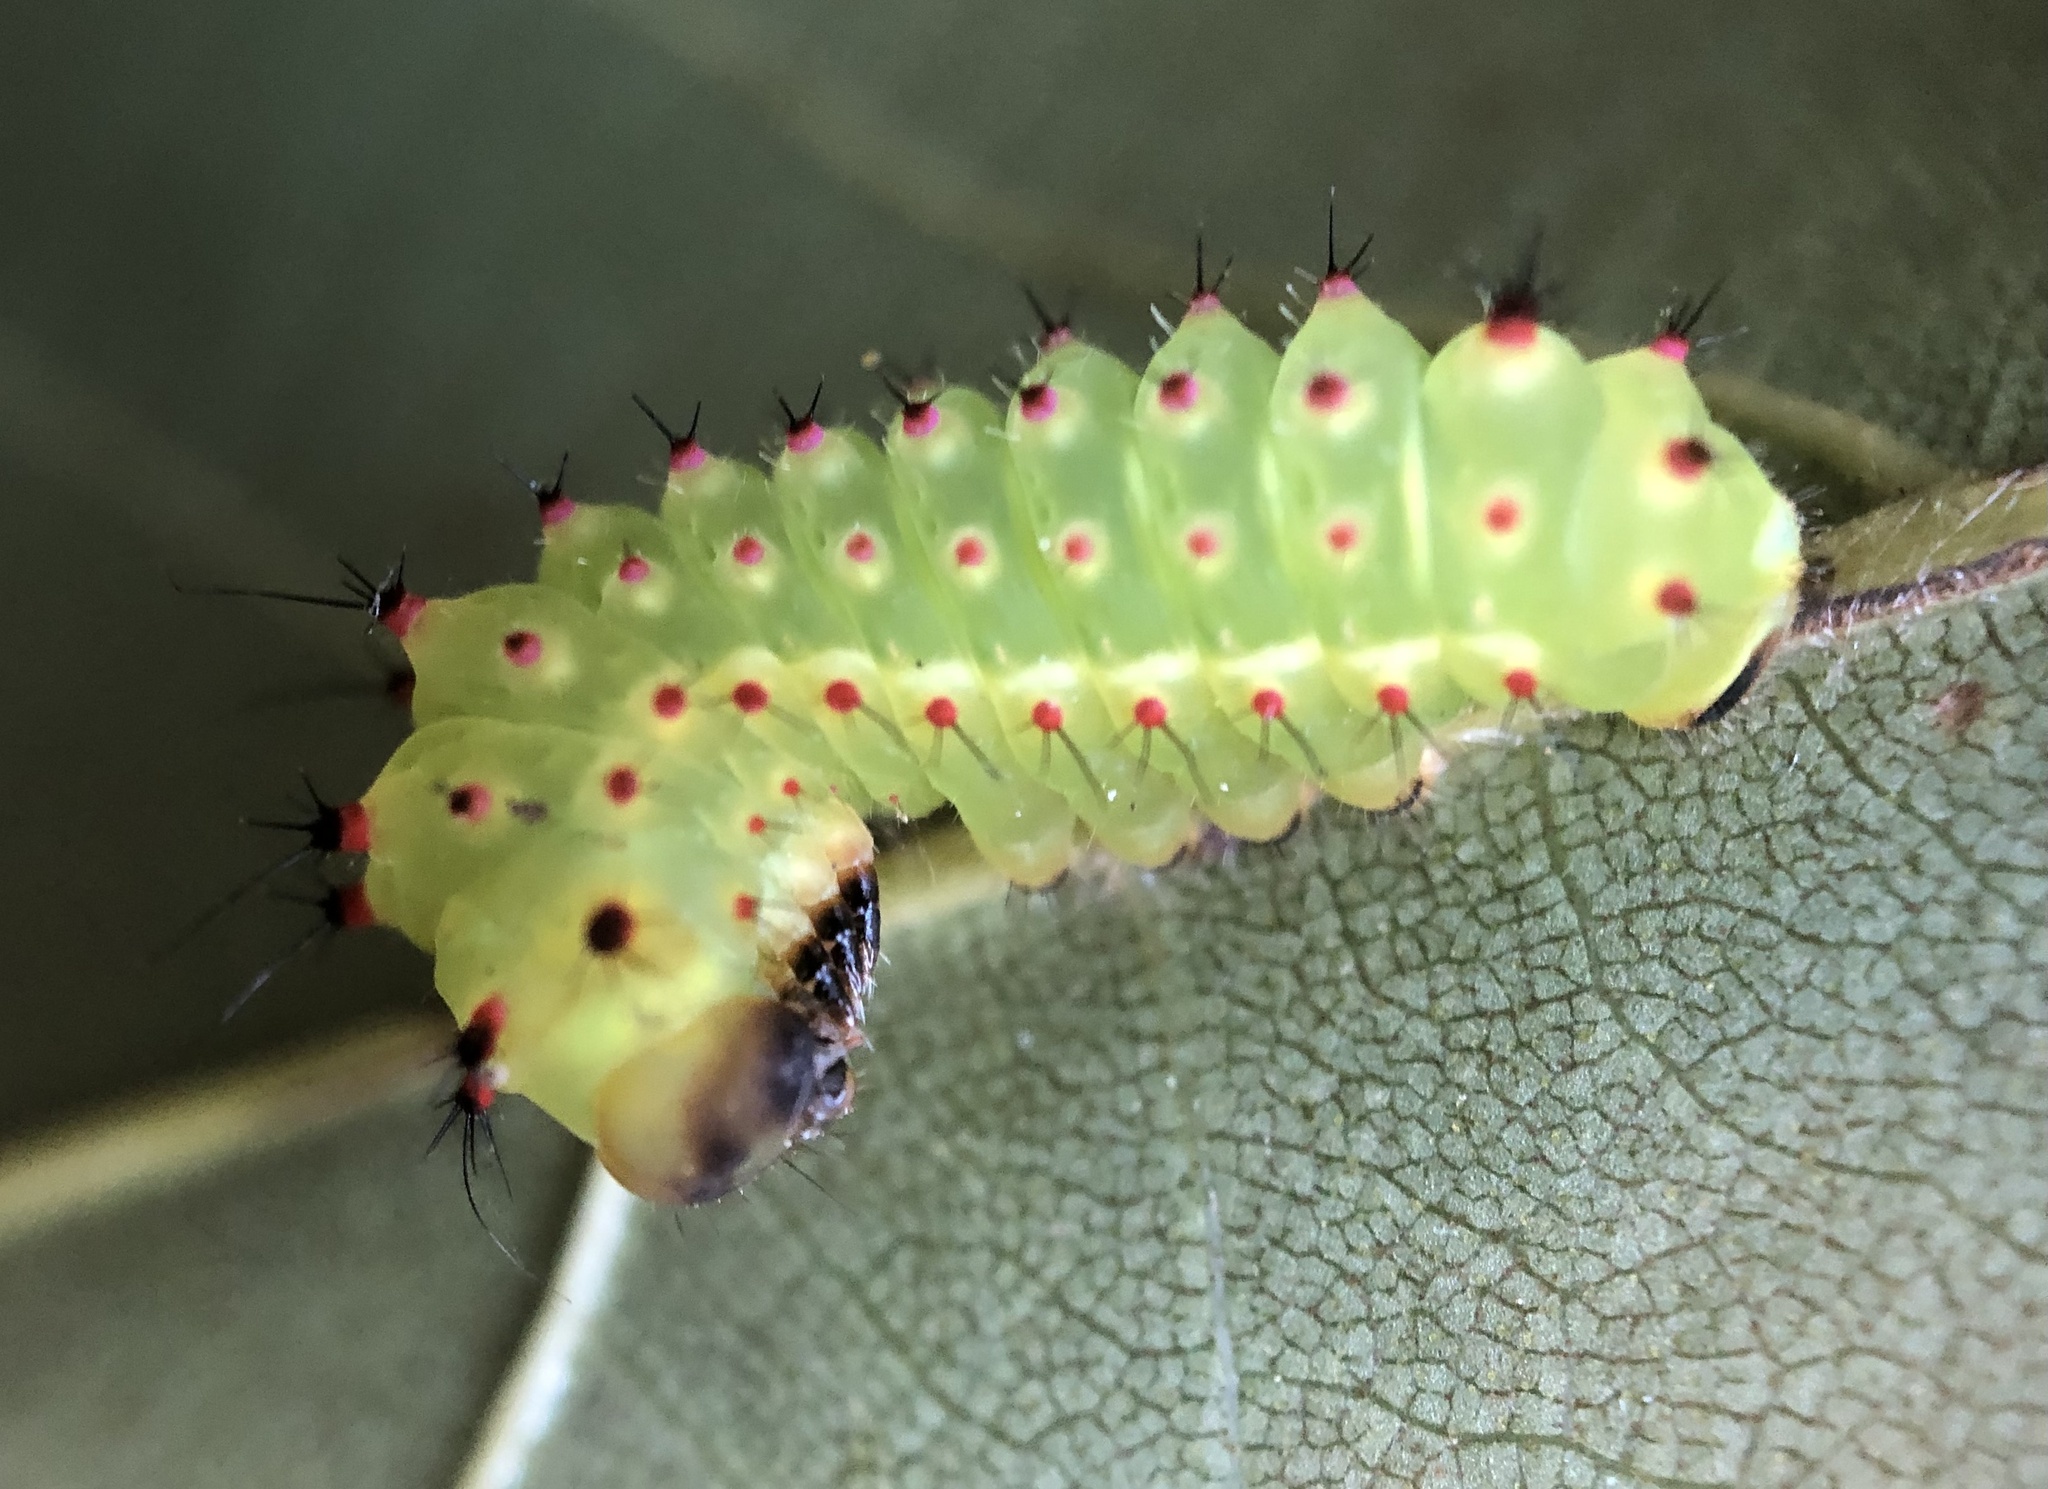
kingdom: Animalia
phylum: Arthropoda
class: Insecta
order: Lepidoptera
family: Saturniidae
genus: Actias
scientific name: Actias luna
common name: Luna moth
